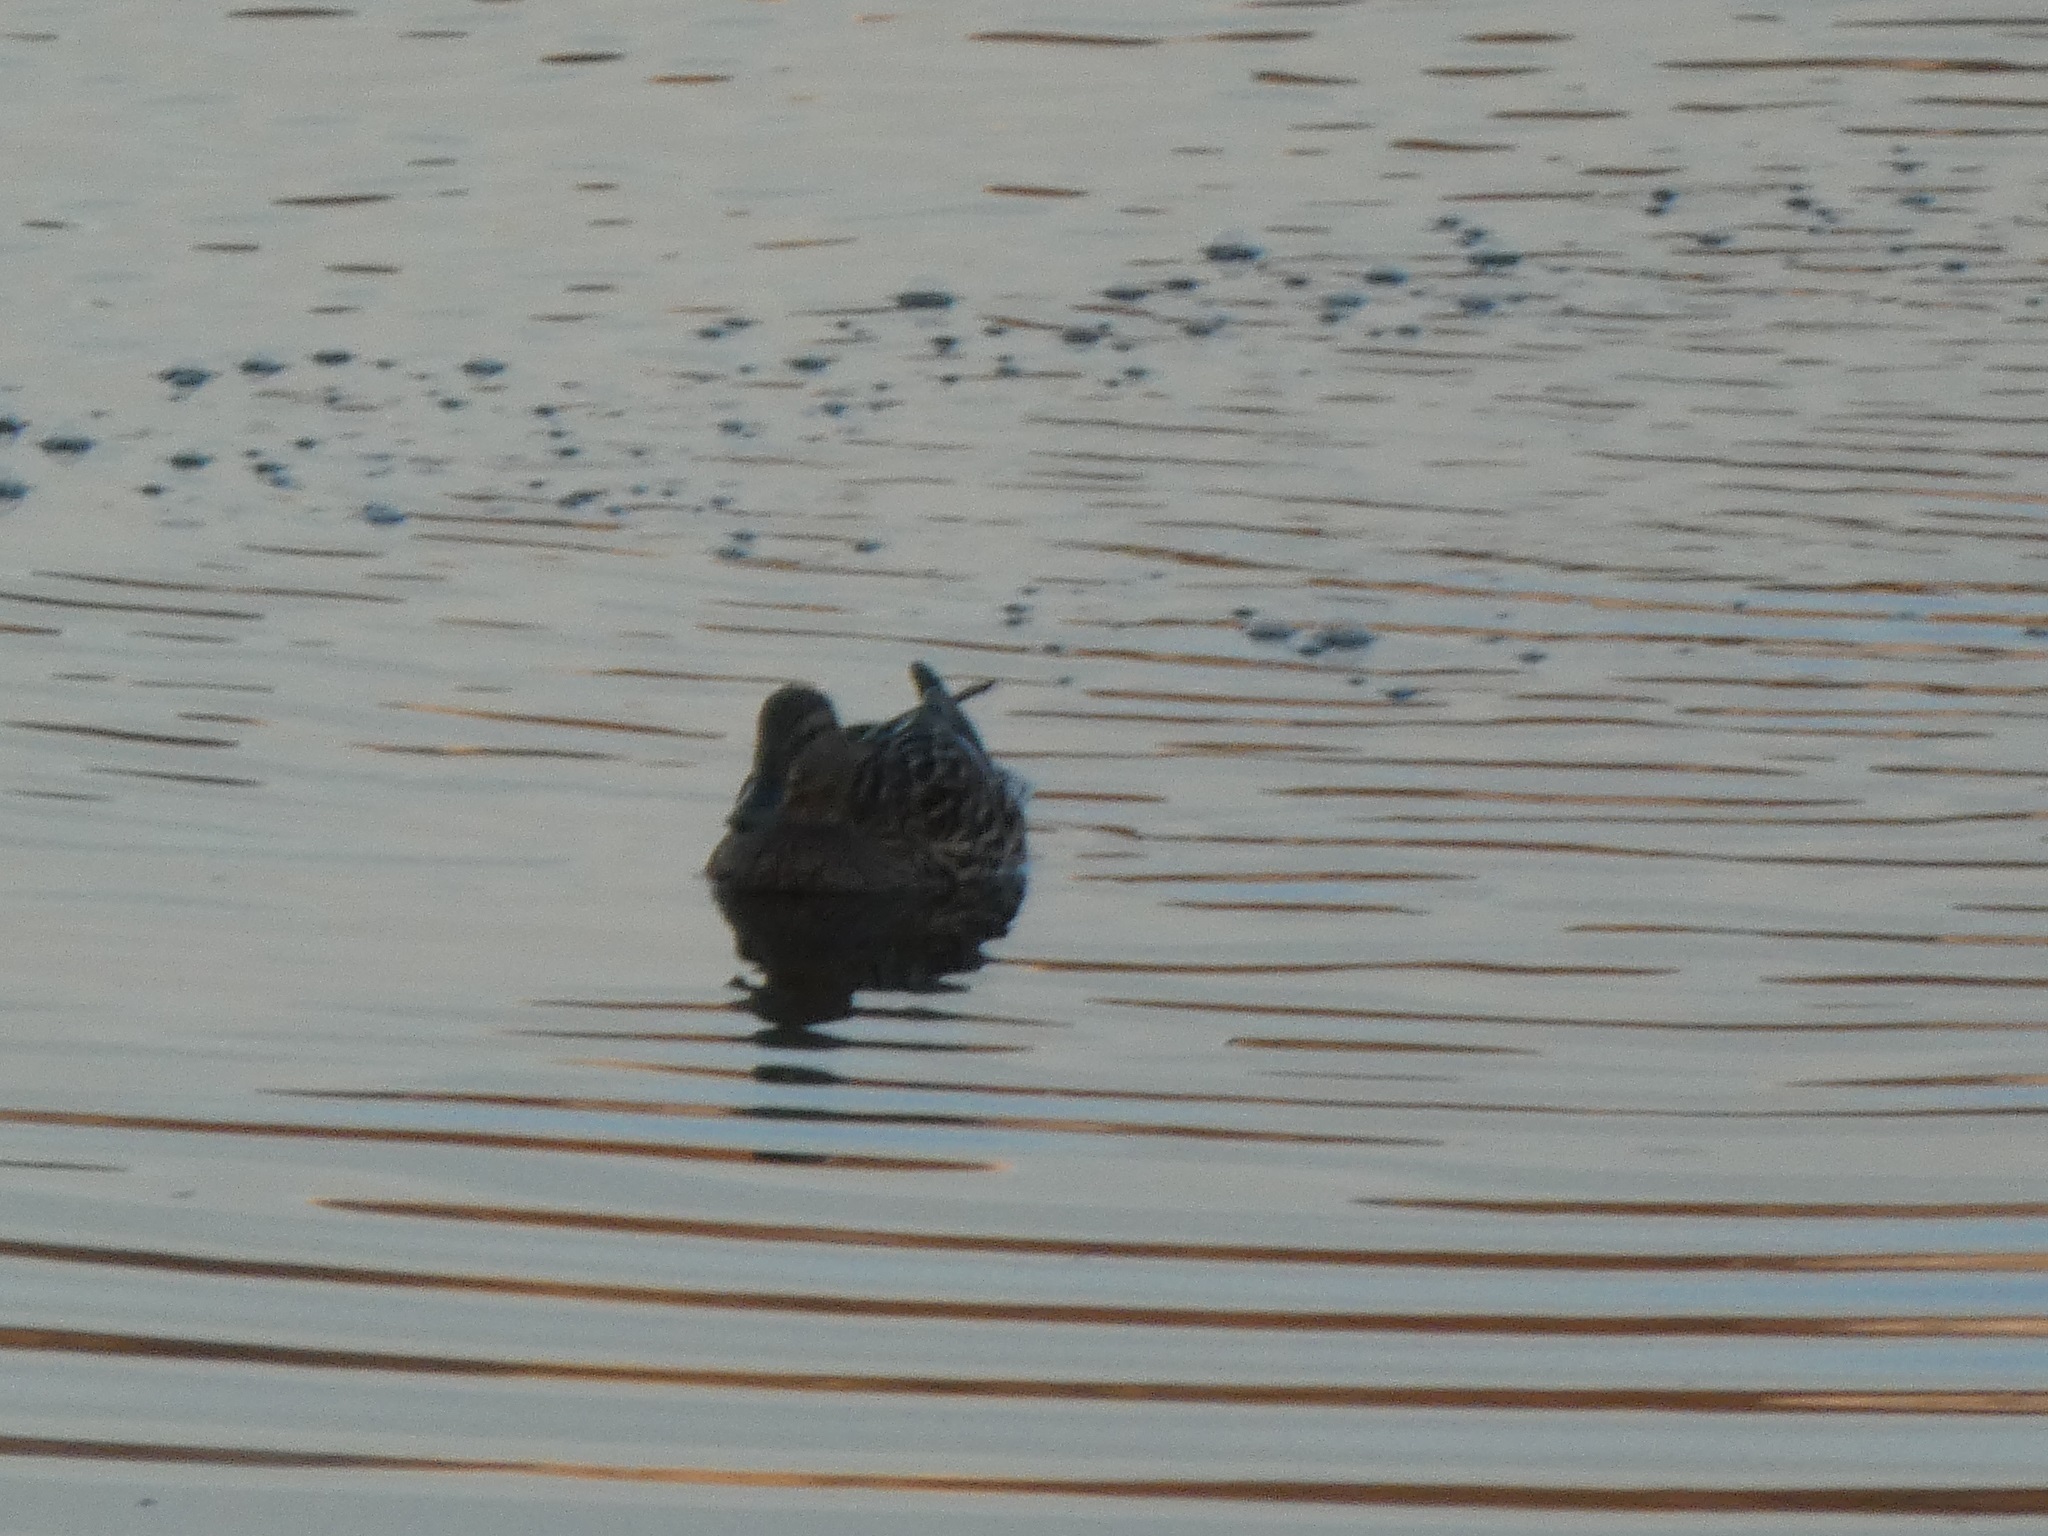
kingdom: Animalia
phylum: Chordata
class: Aves
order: Anseriformes
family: Anatidae
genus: Anas
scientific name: Anas platyrhynchos
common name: Mallard
